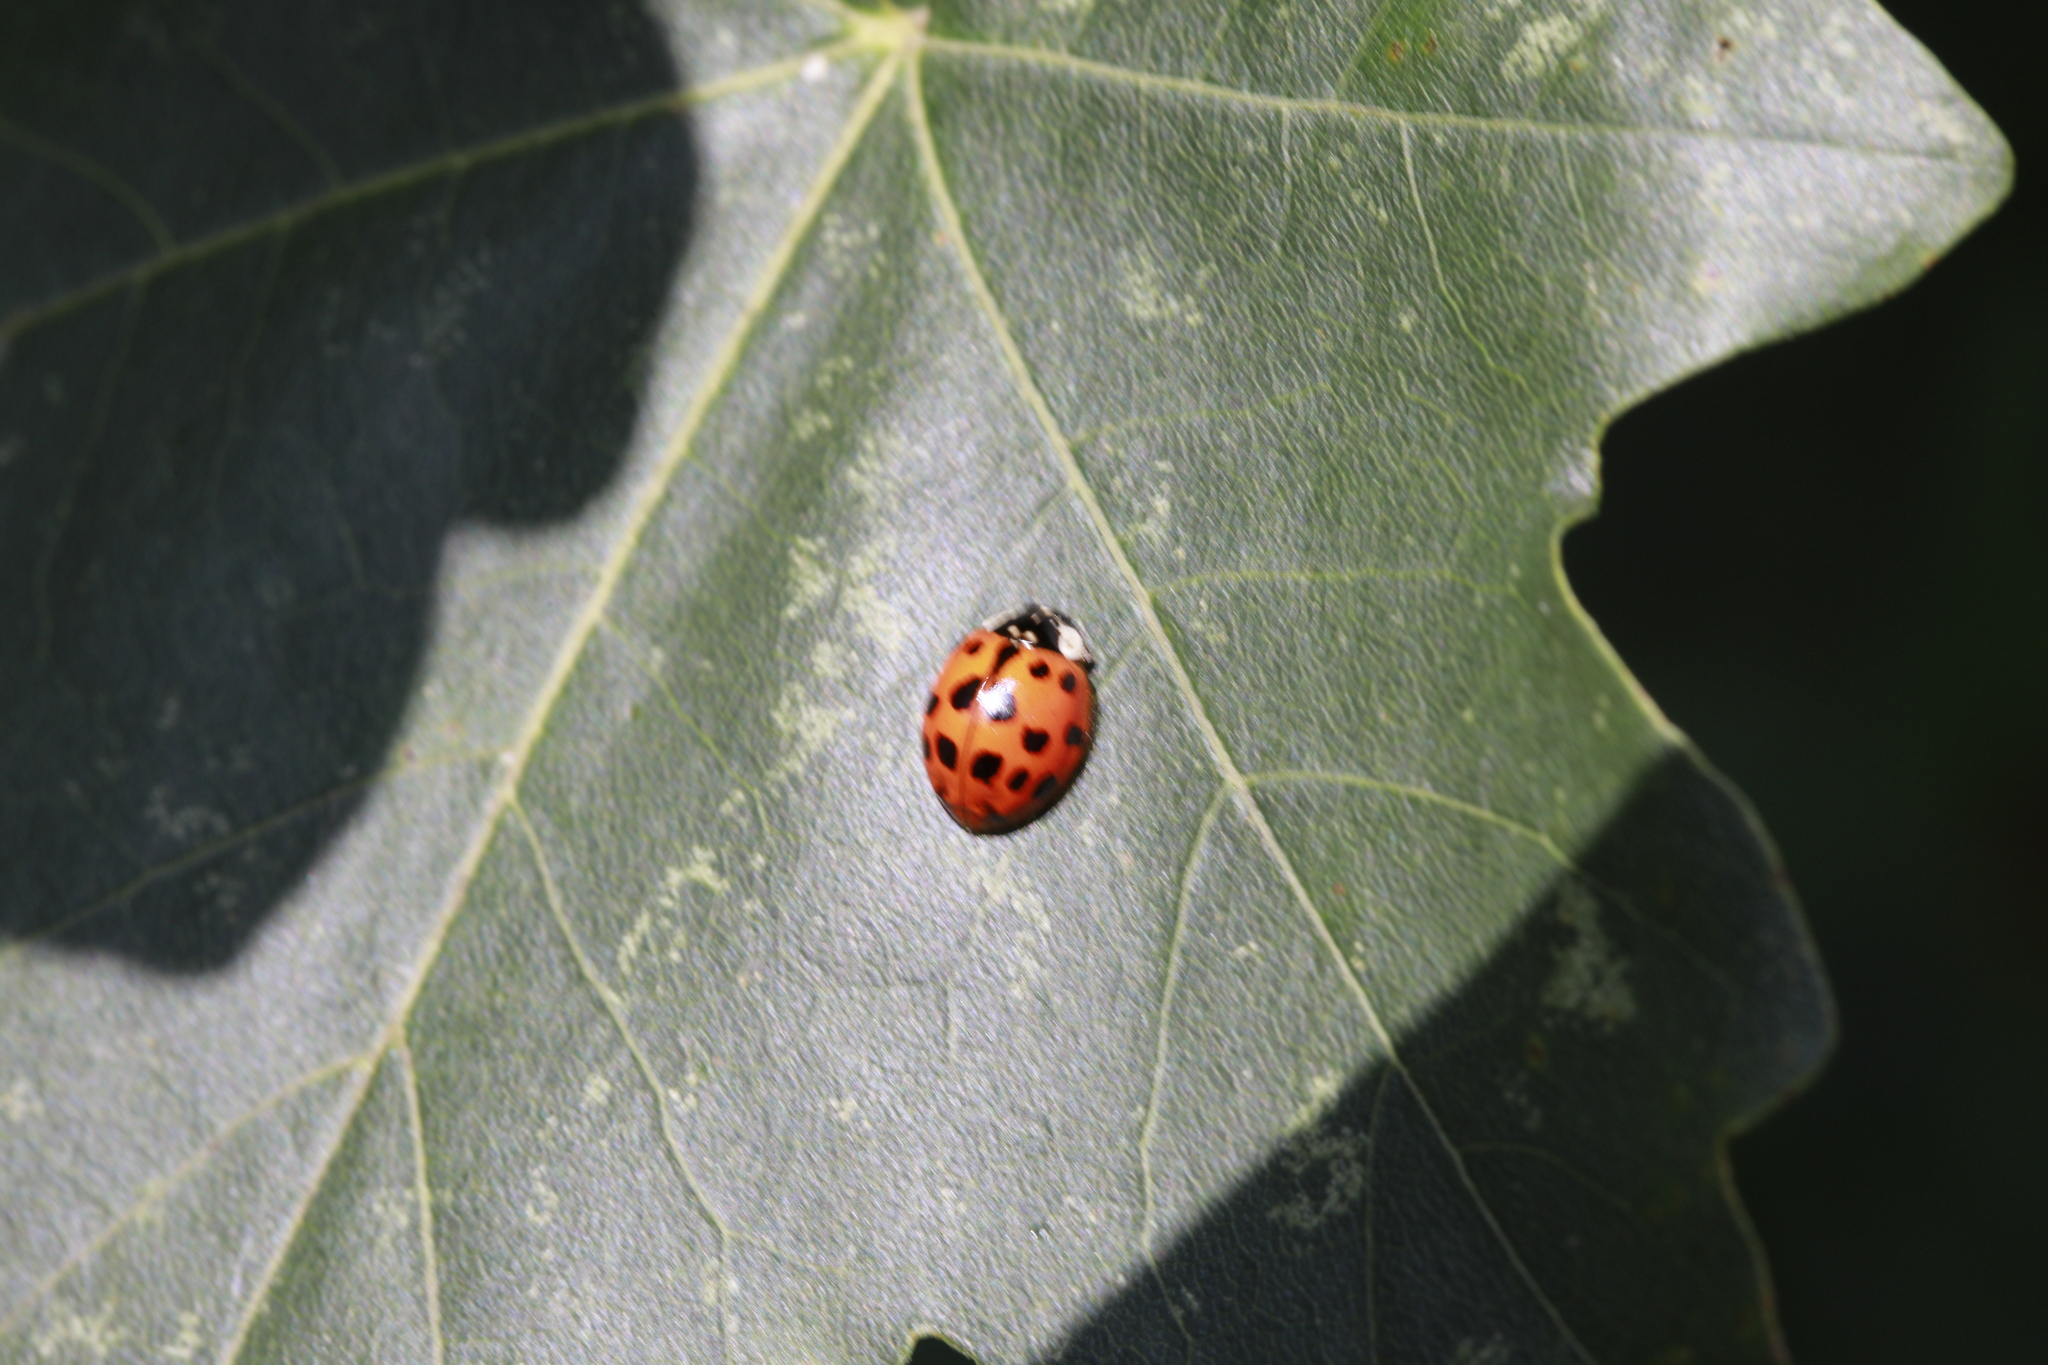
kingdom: Animalia
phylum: Arthropoda
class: Insecta
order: Coleoptera
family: Coccinellidae
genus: Harmonia
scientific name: Harmonia axyridis
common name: Harlequin ladybird
